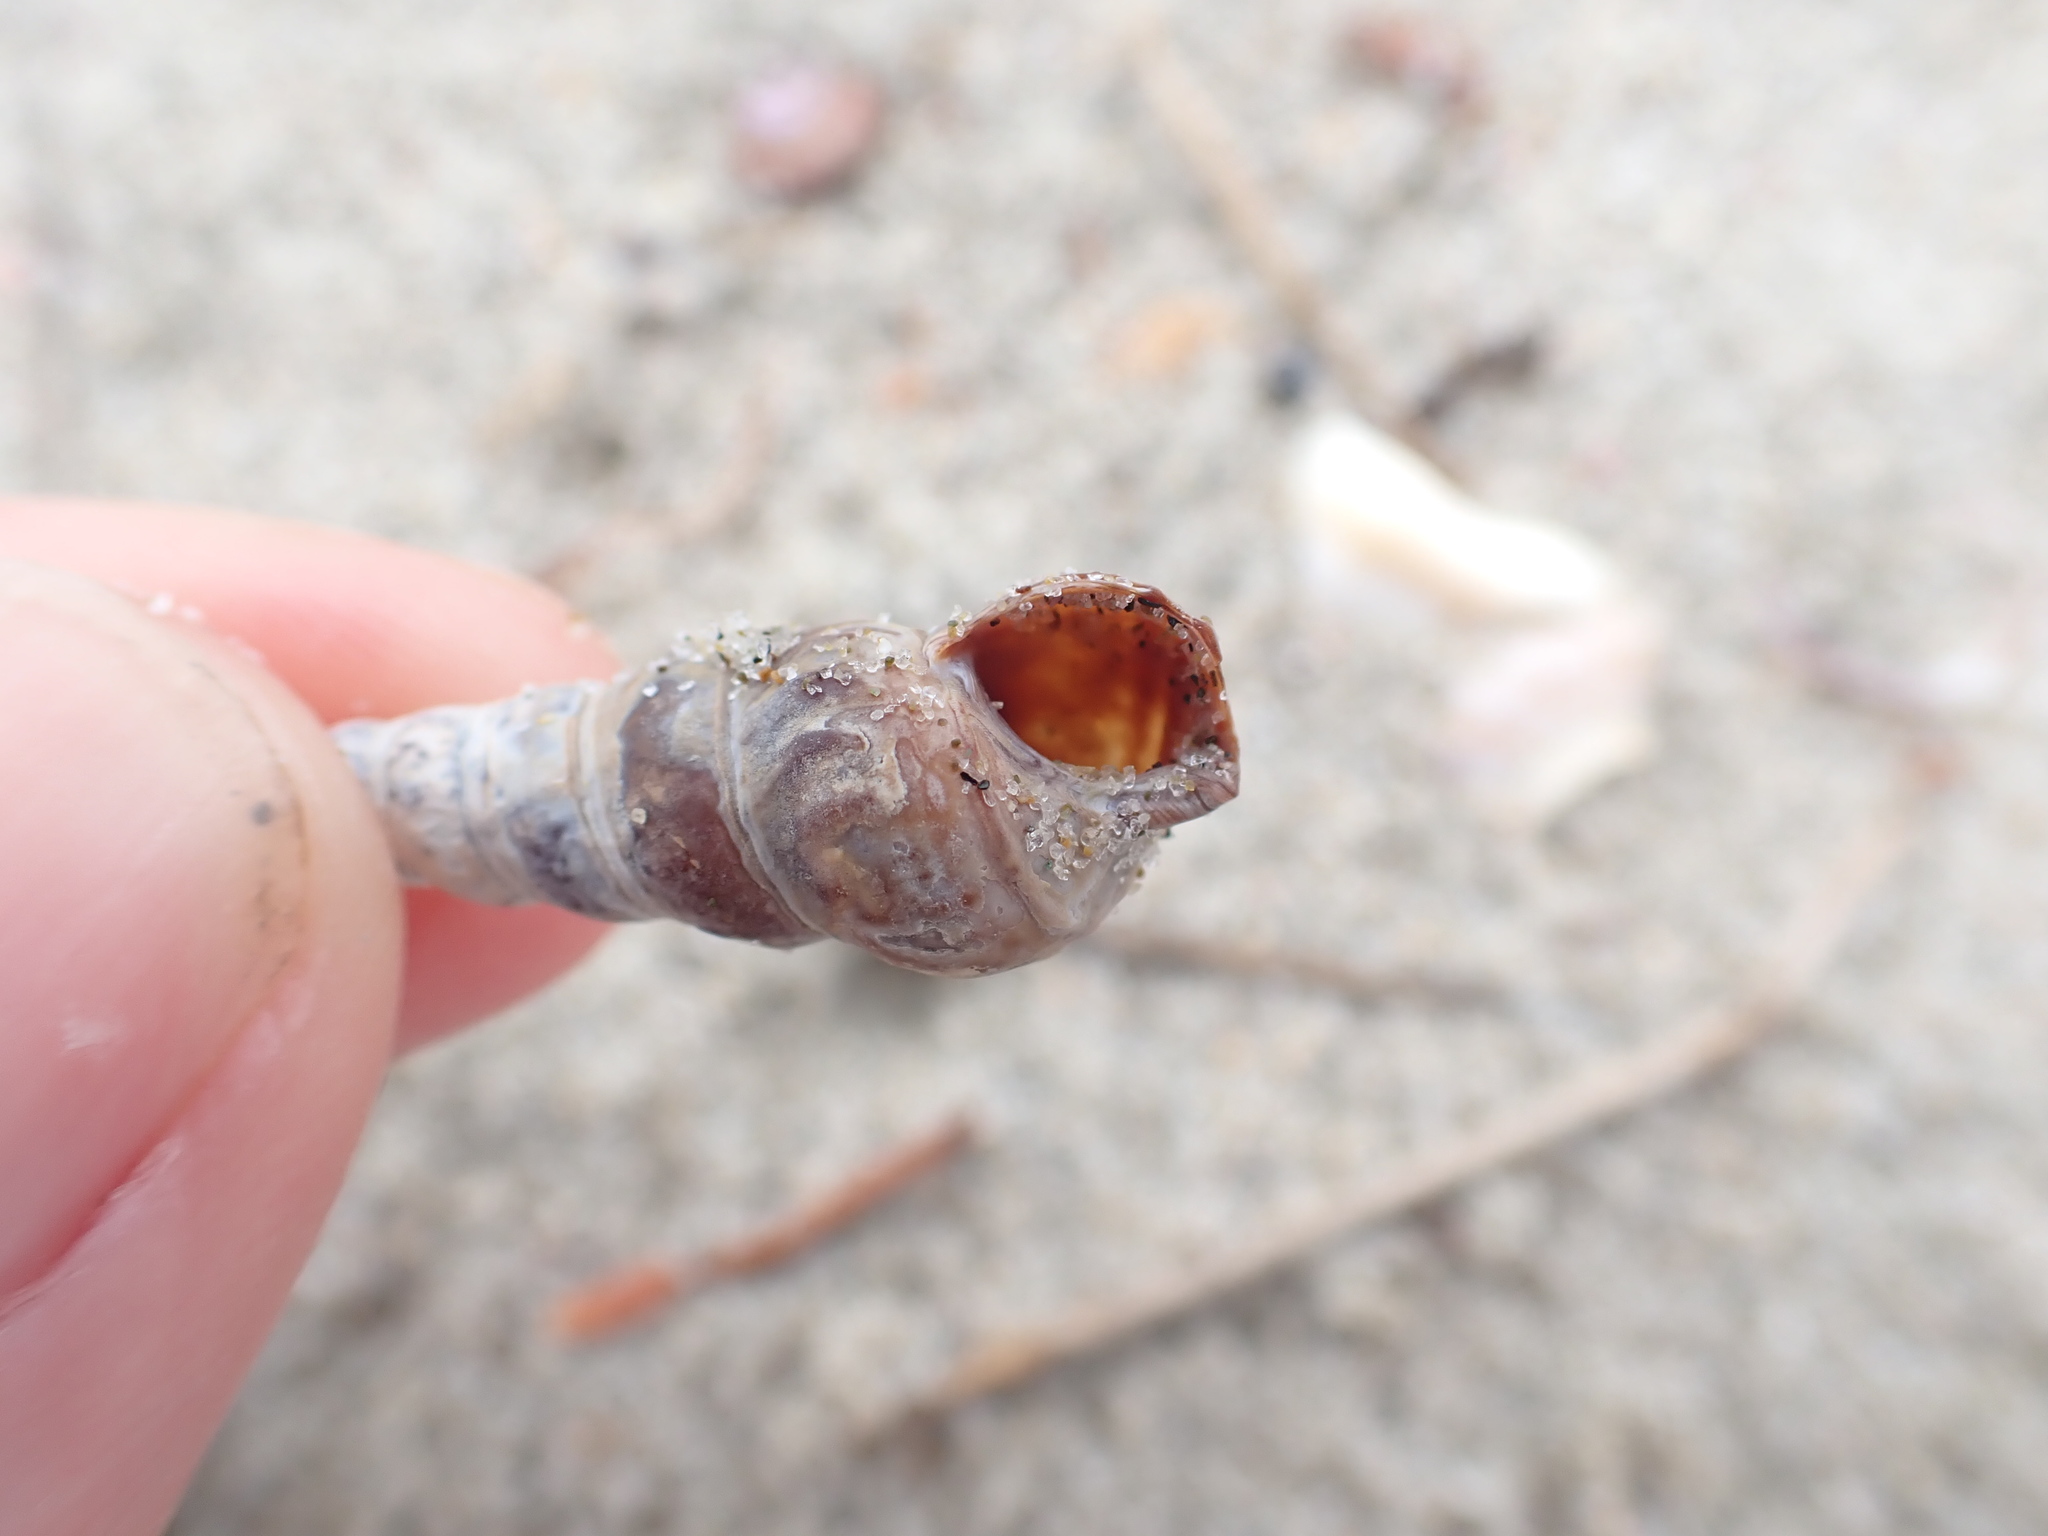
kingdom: Animalia
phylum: Mollusca
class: Gastropoda
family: Batillariidae
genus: Zeacumantus
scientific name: Zeacumantus lutulentus
